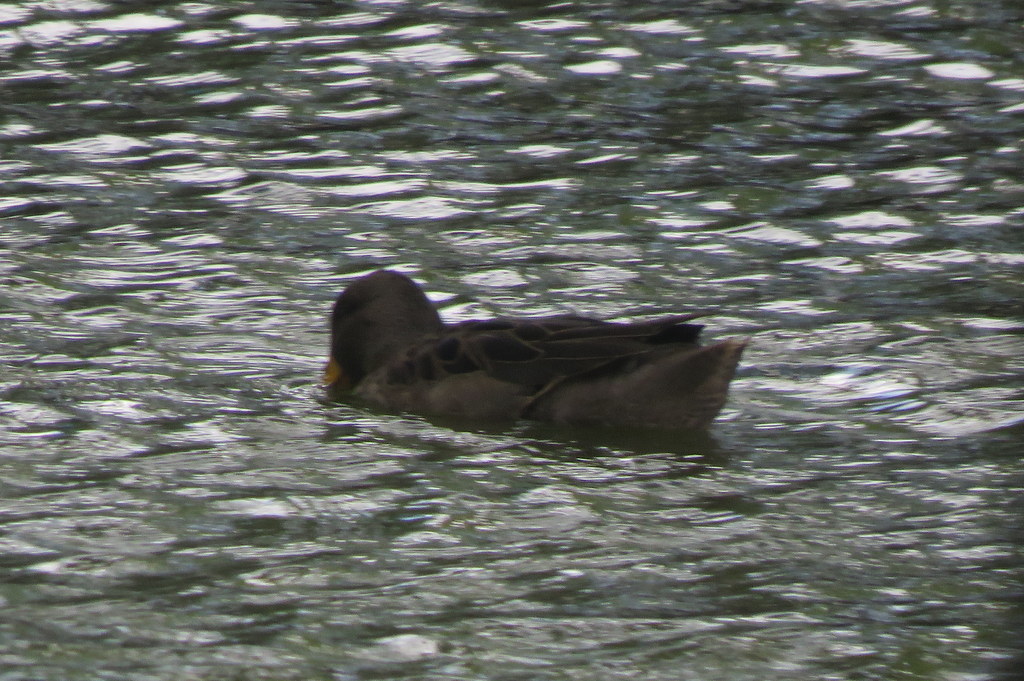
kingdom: Animalia
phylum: Chordata
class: Aves
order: Anseriformes
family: Anatidae
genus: Anas
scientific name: Anas flavirostris
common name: Yellow-billed teal
